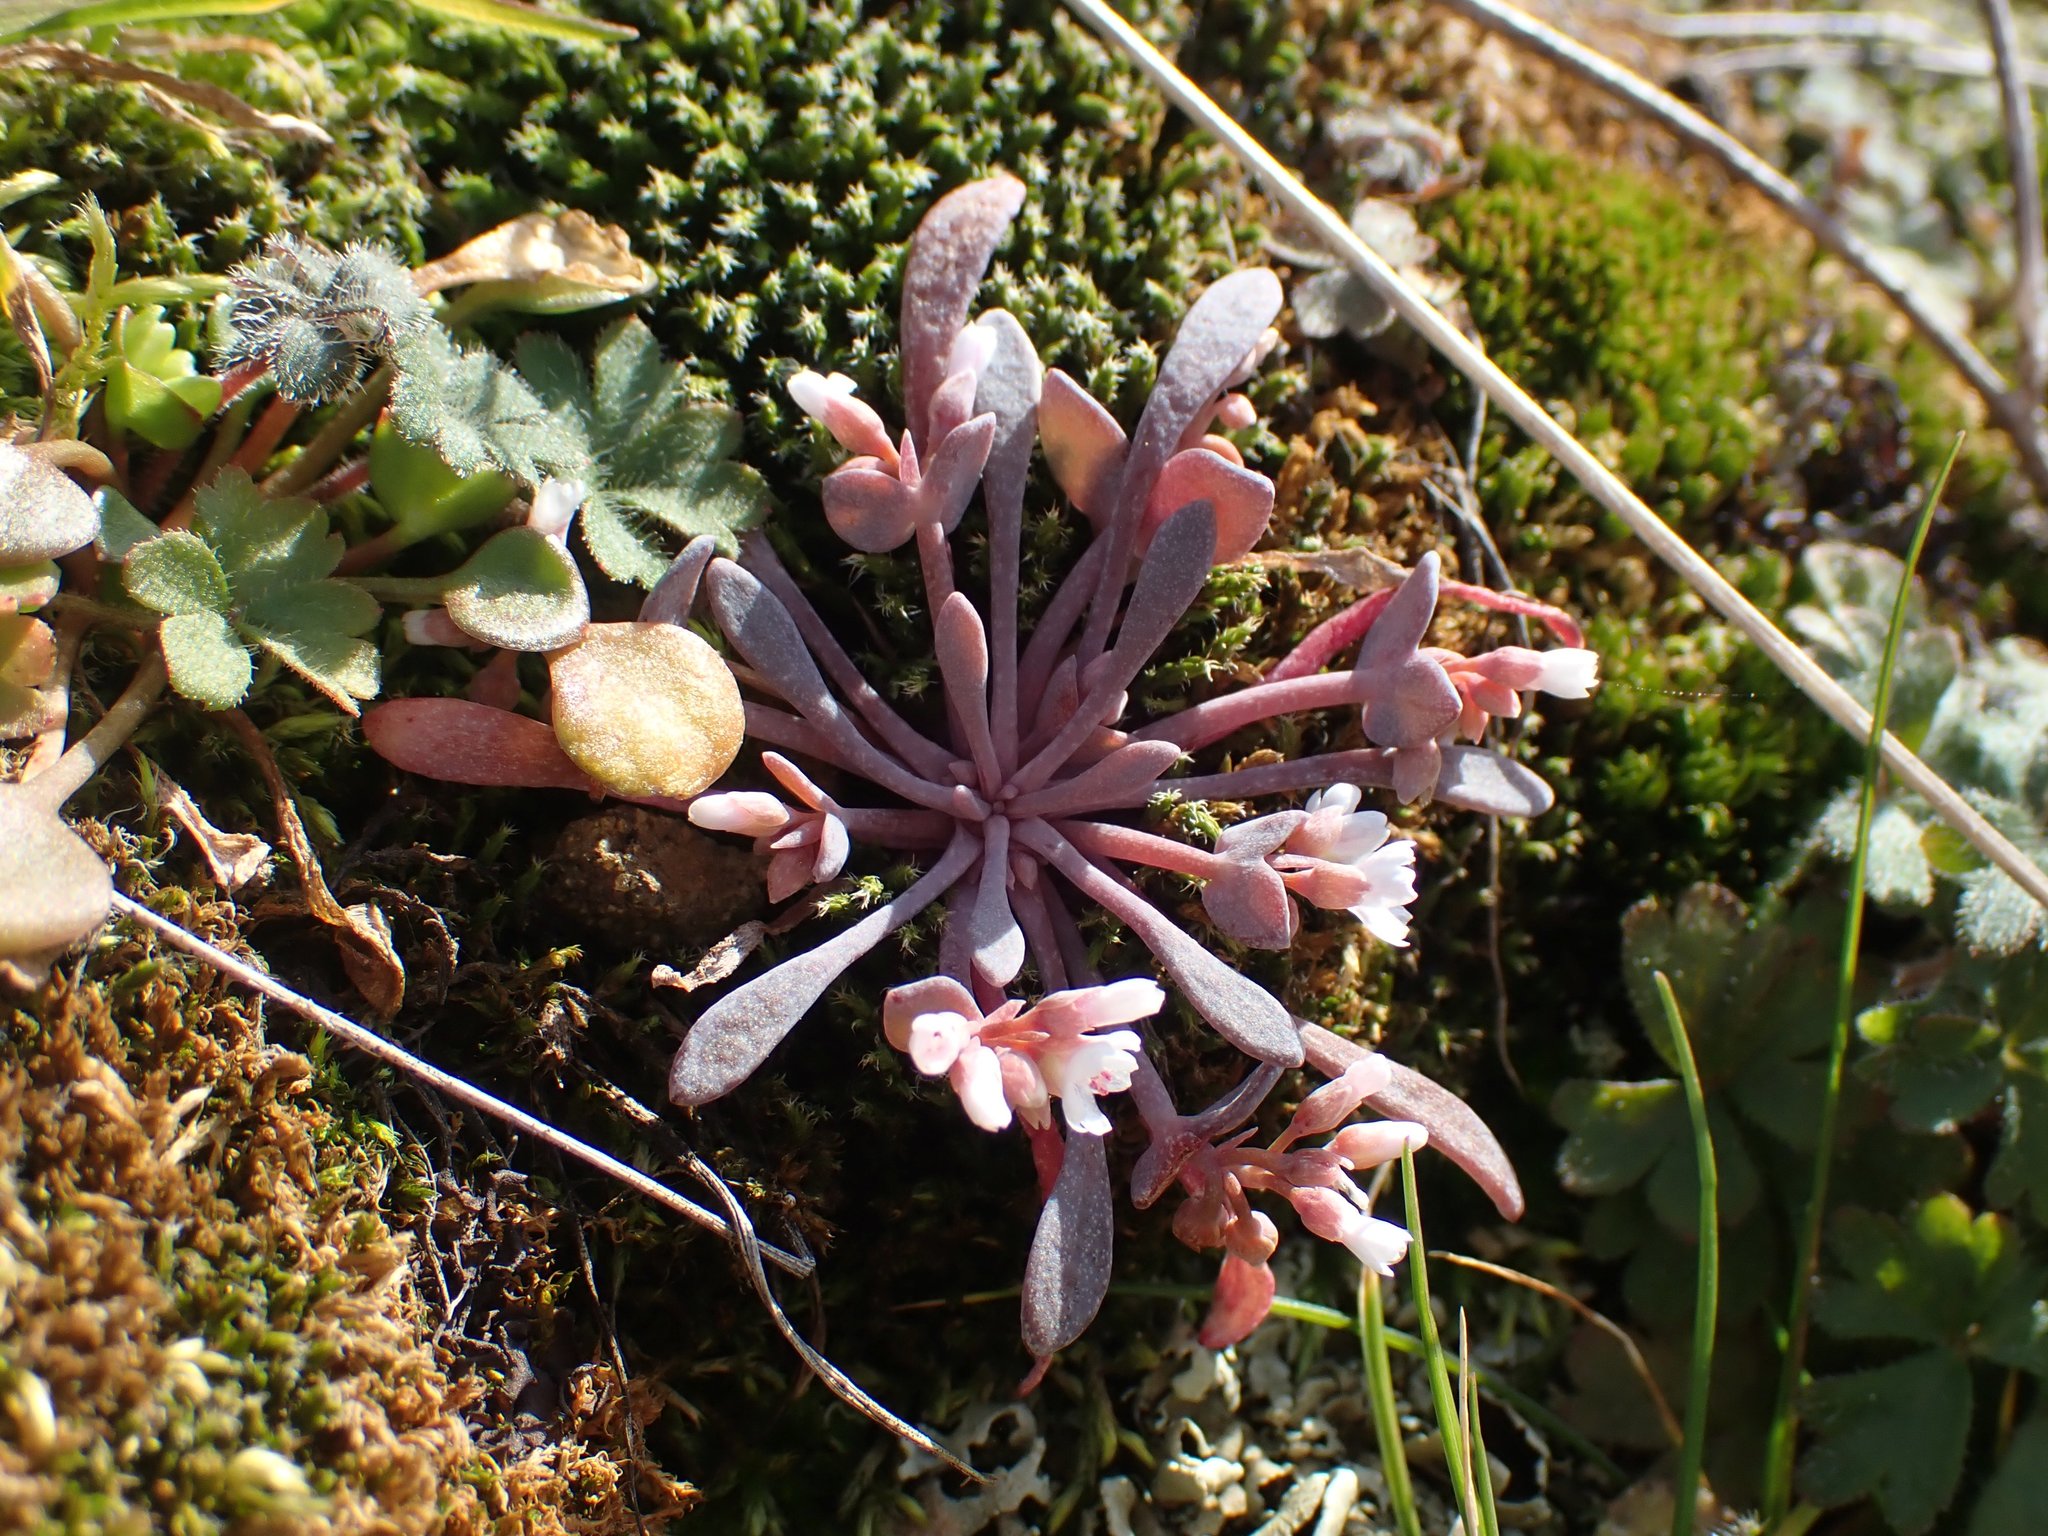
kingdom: Plantae
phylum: Tracheophyta
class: Magnoliopsida
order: Caryophyllales
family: Montiaceae
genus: Claytonia
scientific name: Claytonia exigua
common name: Pale spring beauty
